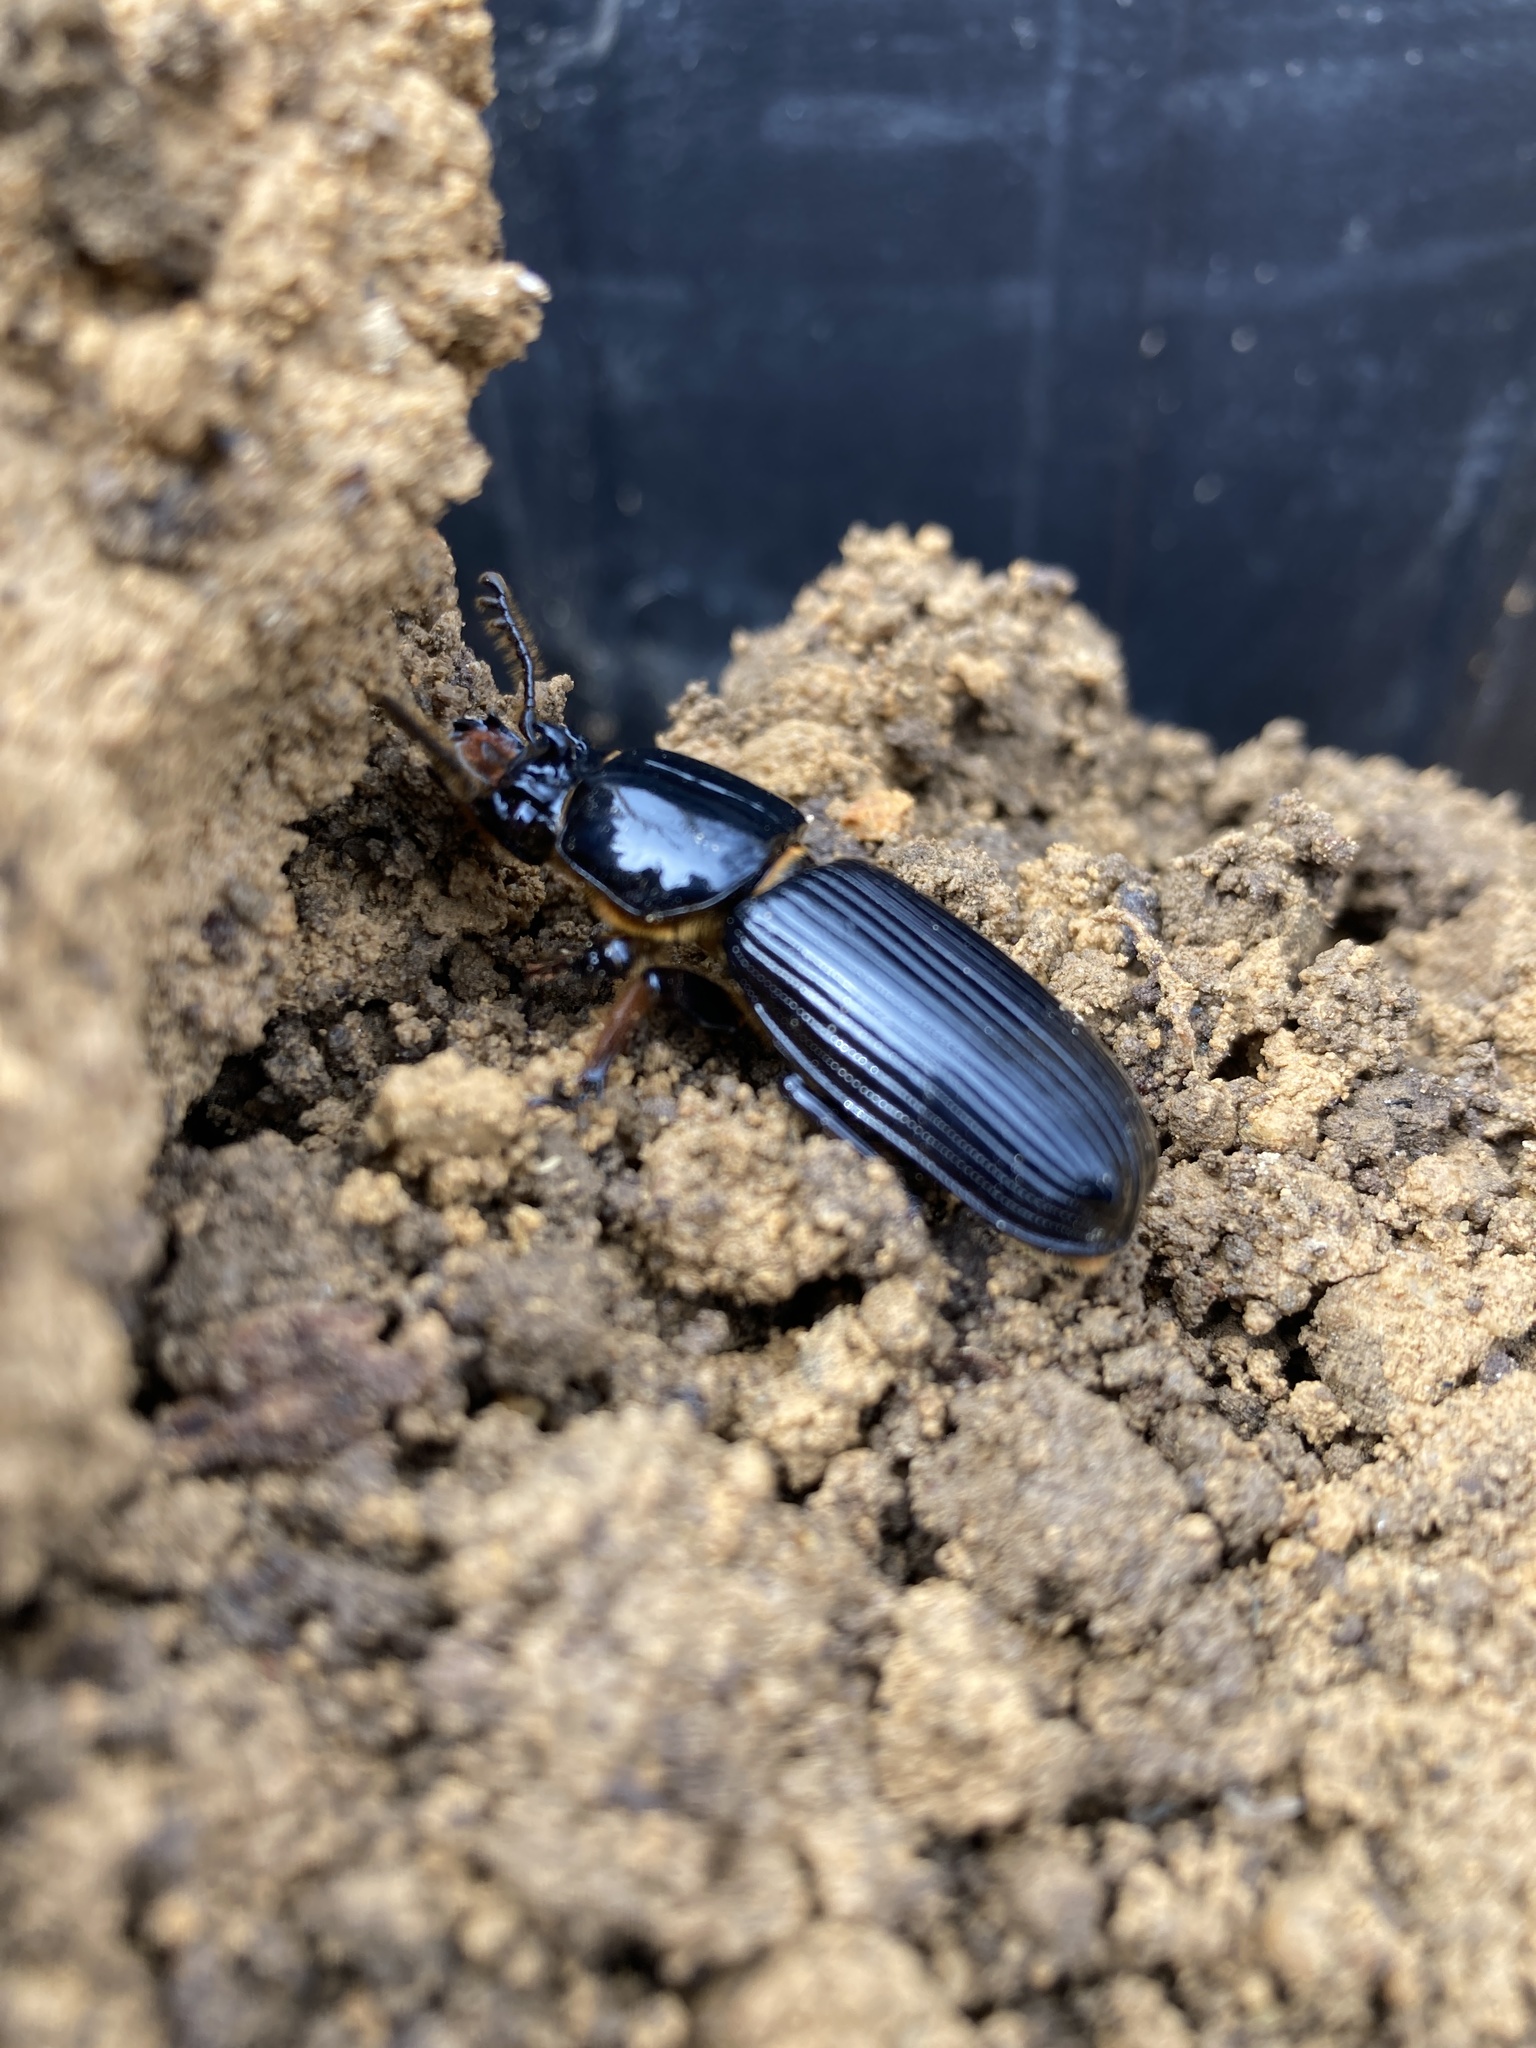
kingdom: Animalia
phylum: Arthropoda
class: Insecta
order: Coleoptera
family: Passalidae
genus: Odontotaenius
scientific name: Odontotaenius disjunctus
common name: Patent leather beetle
